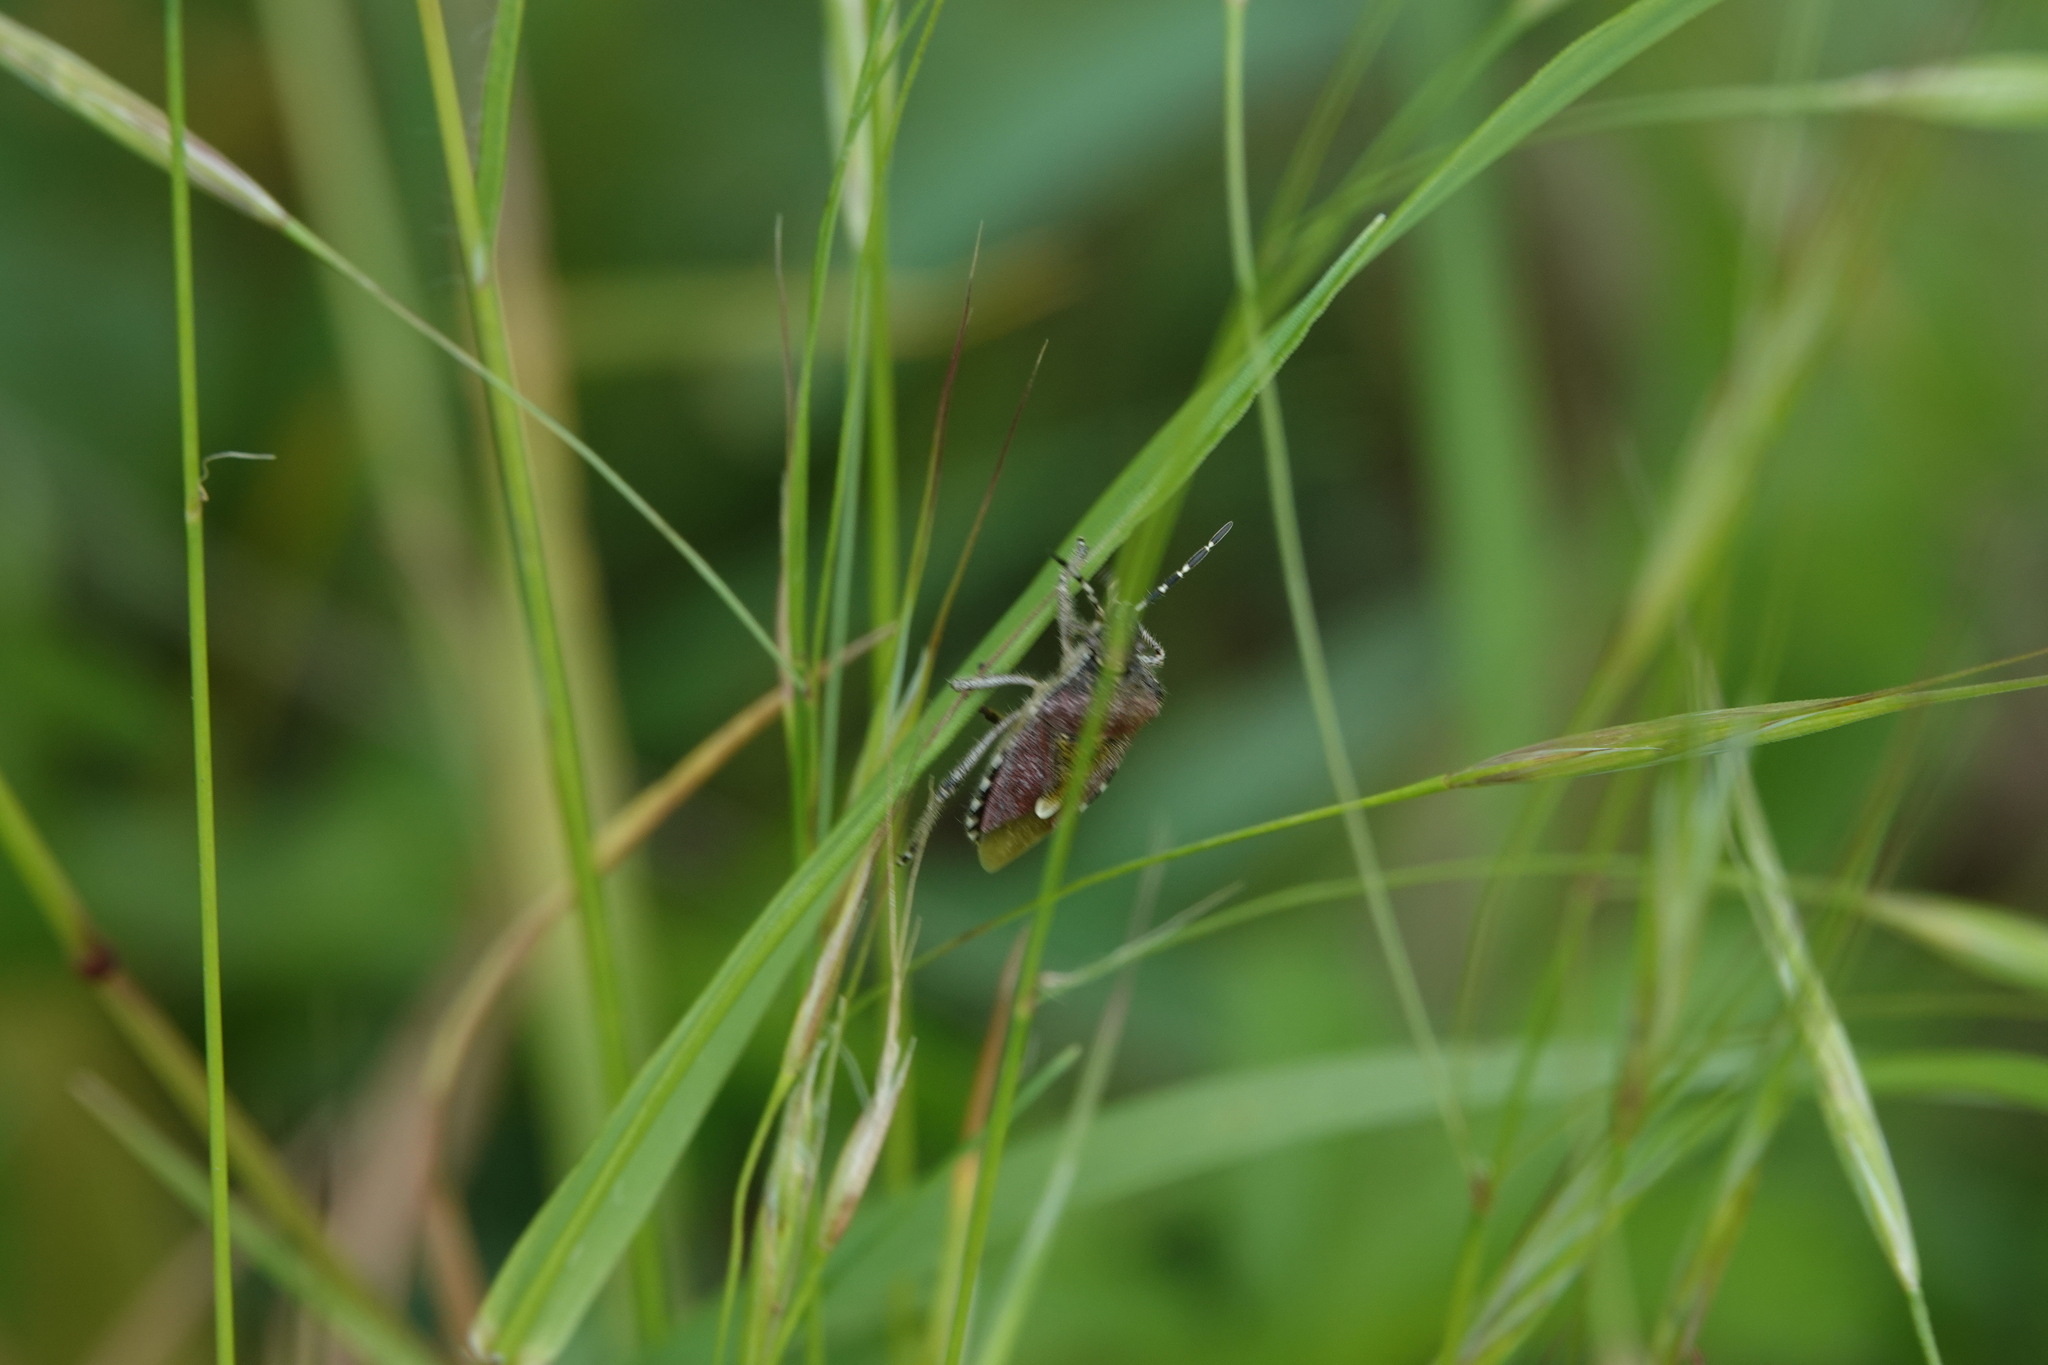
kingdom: Animalia
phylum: Arthropoda
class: Insecta
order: Hemiptera
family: Pentatomidae
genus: Dolycoris
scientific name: Dolycoris baccarum
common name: Sloe bug
